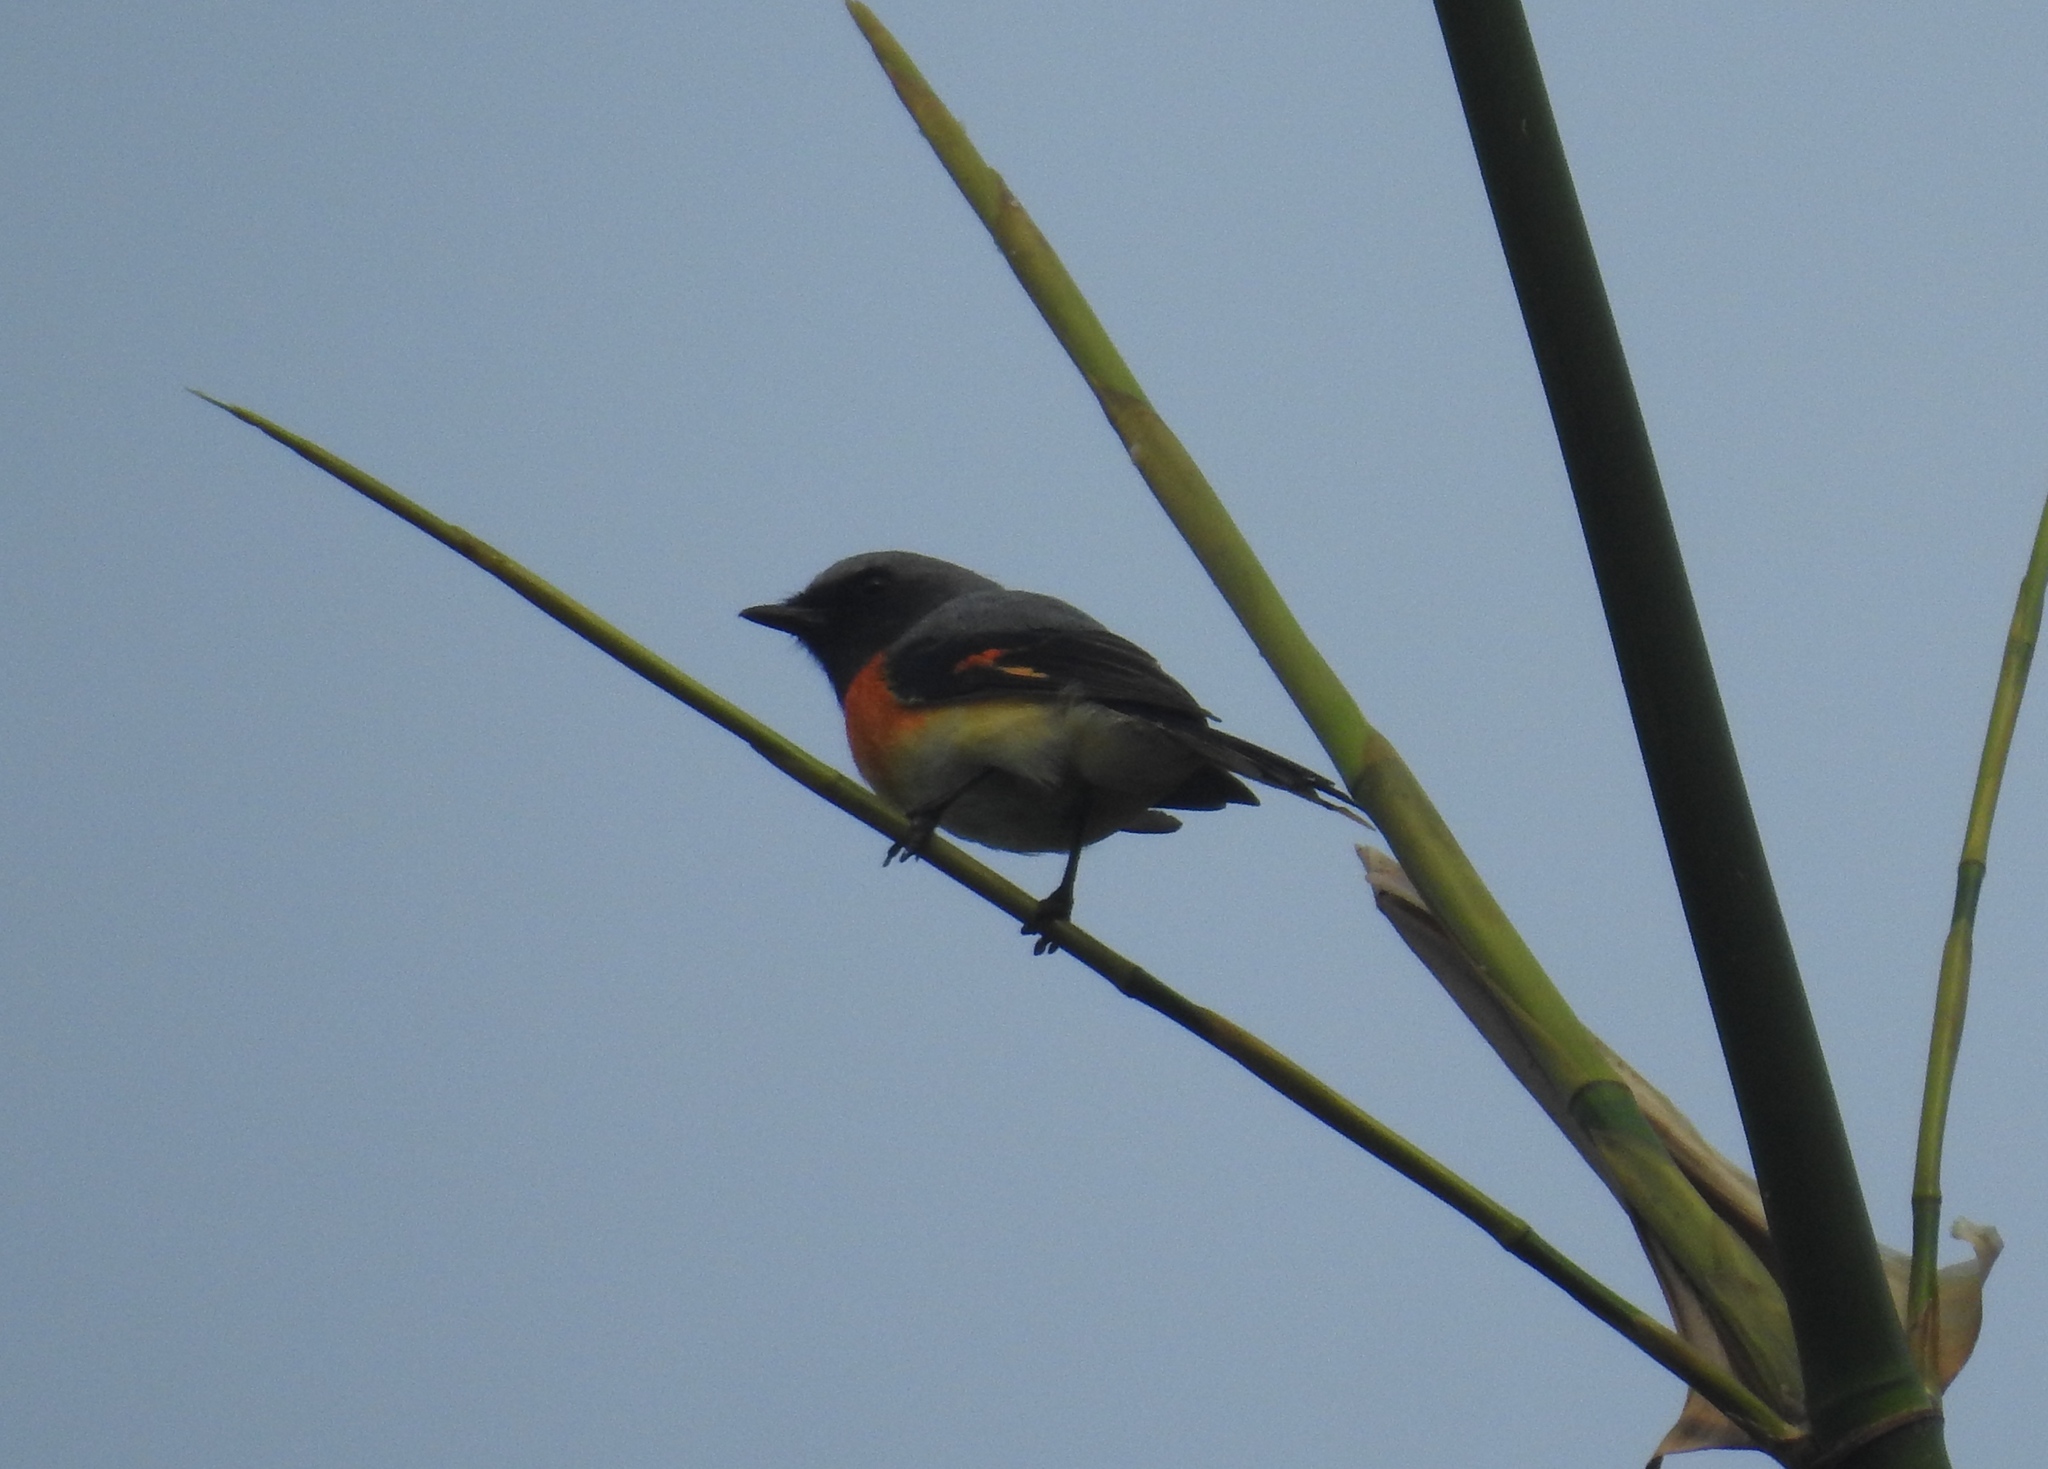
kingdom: Animalia
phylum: Chordata
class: Aves
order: Passeriformes
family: Campephagidae
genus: Pericrocotus
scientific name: Pericrocotus cinnamomeus
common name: Small minivet
